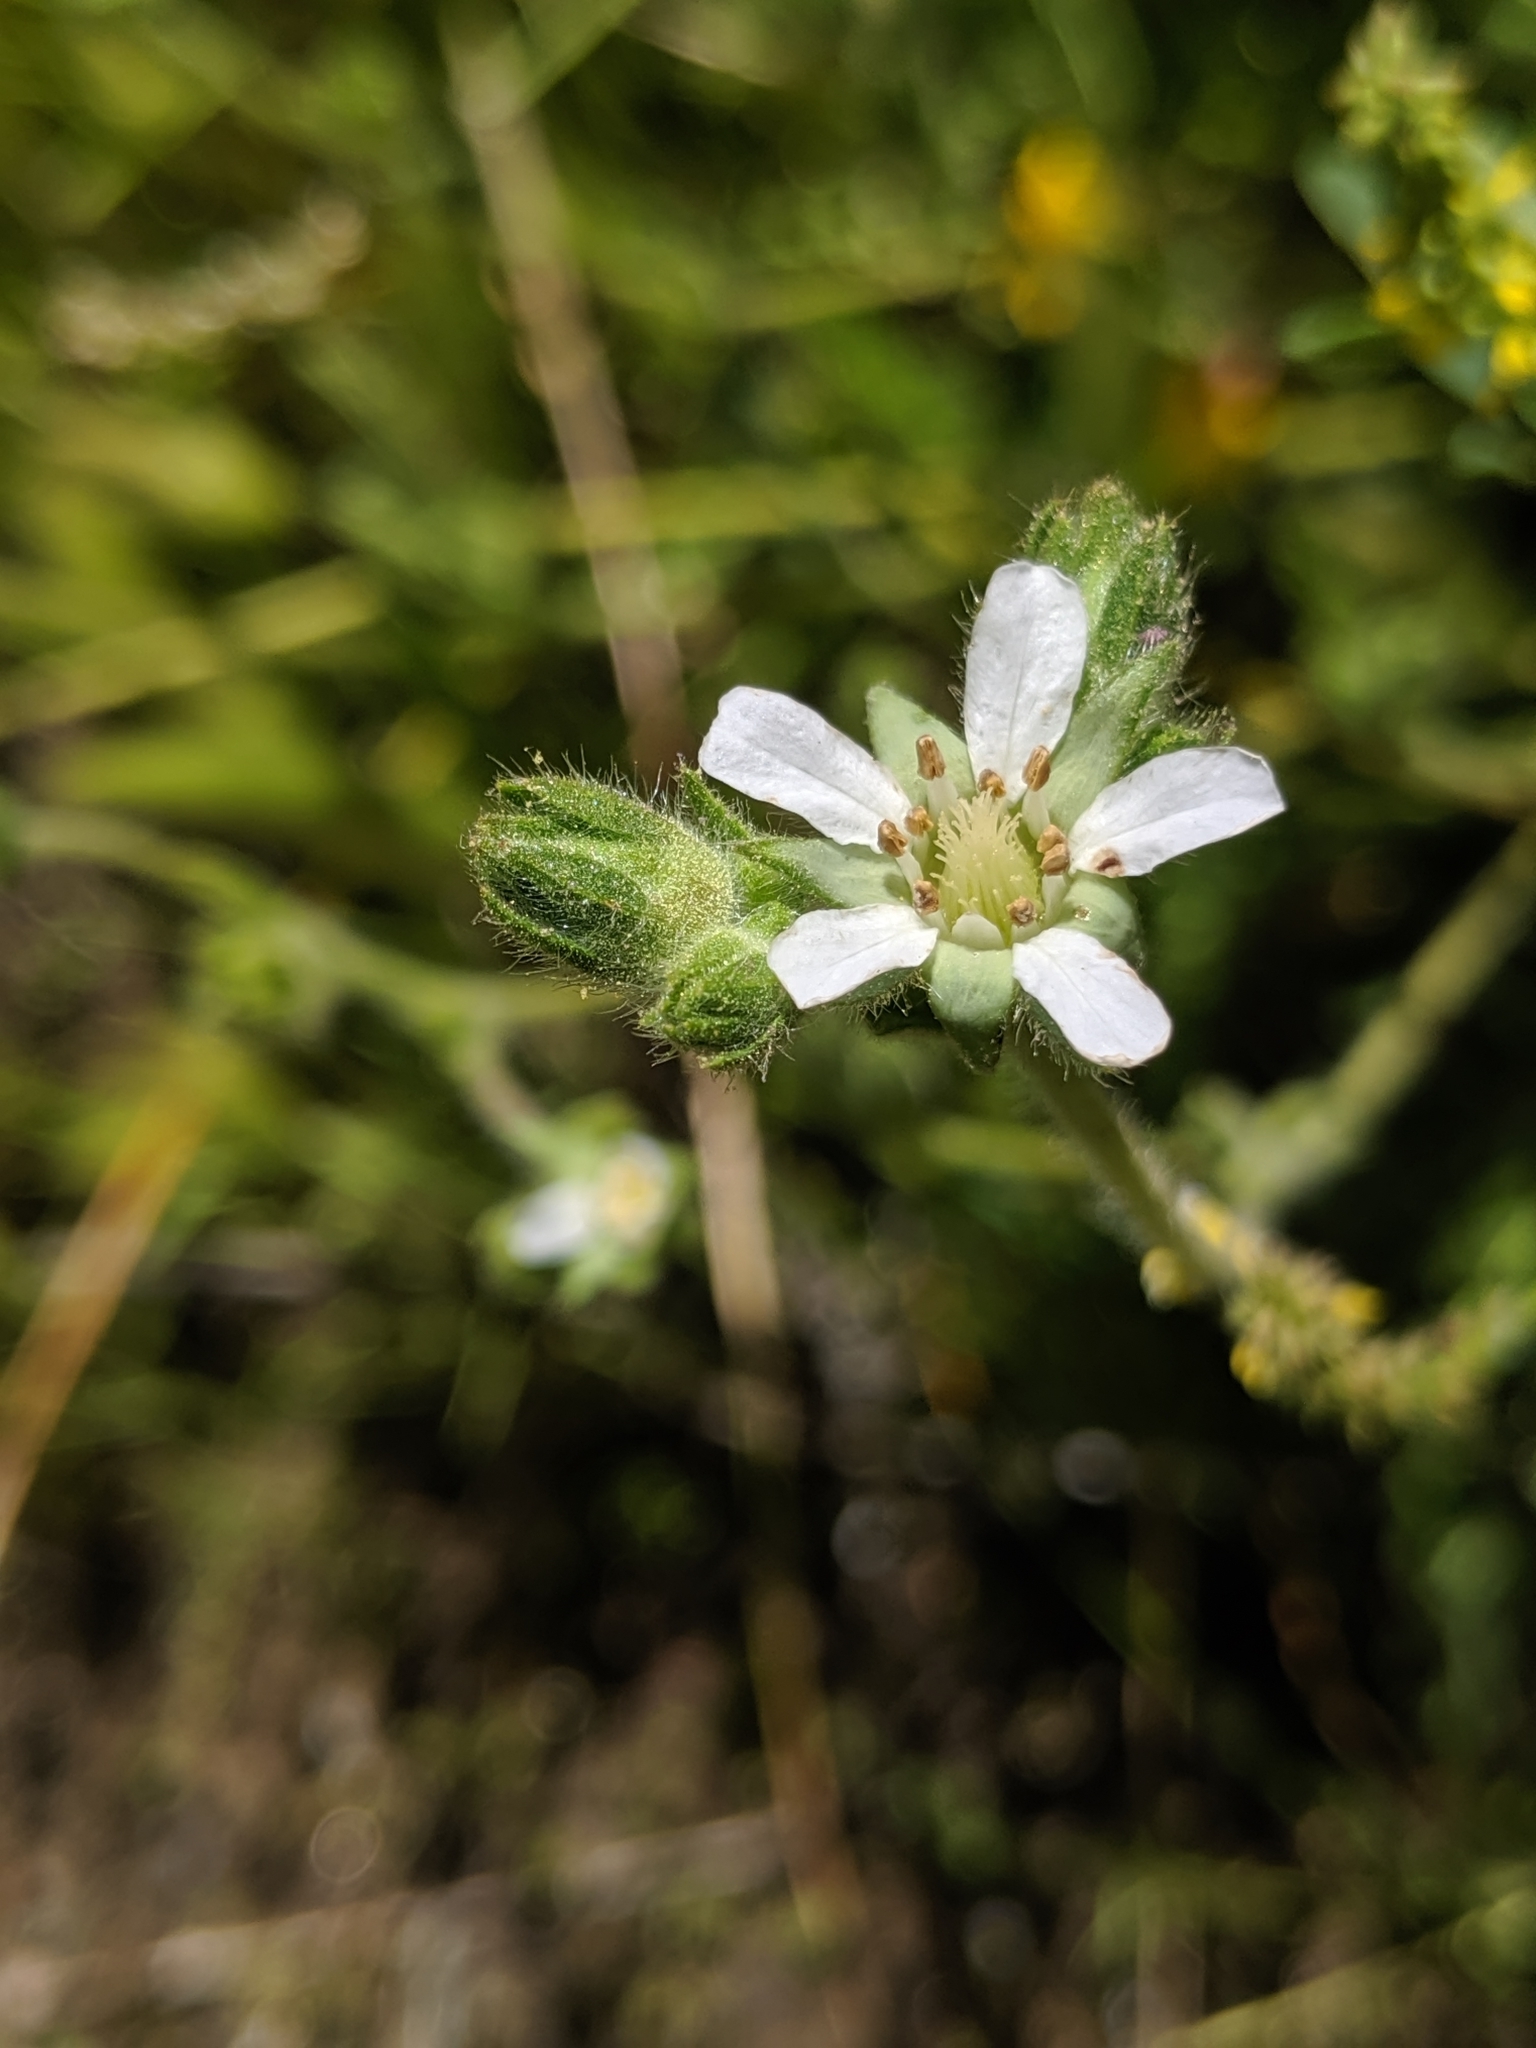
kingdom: Plantae
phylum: Tracheophyta
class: Magnoliopsida
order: Rosales
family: Rosaceae
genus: Potentilla
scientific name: Potentilla yadonii
